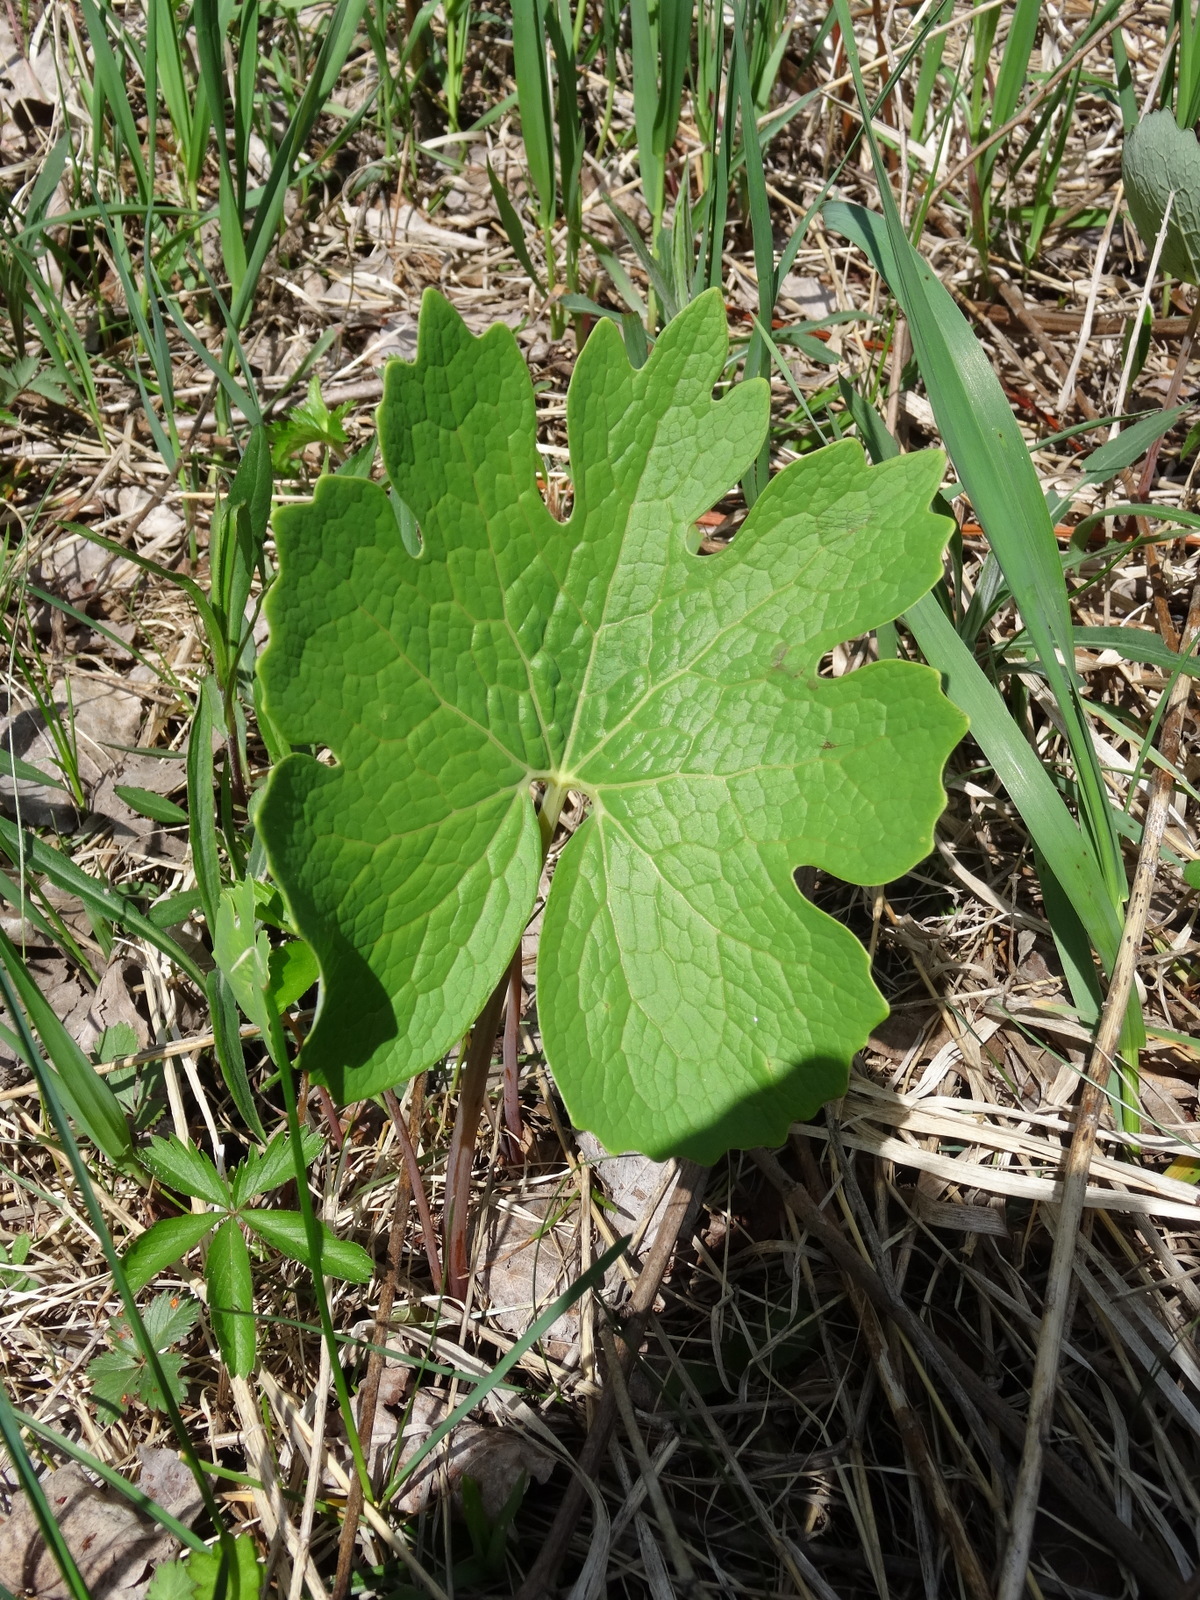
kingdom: Plantae
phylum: Tracheophyta
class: Magnoliopsida
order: Ranunculales
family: Papaveraceae
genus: Sanguinaria
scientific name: Sanguinaria canadensis
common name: Bloodroot
